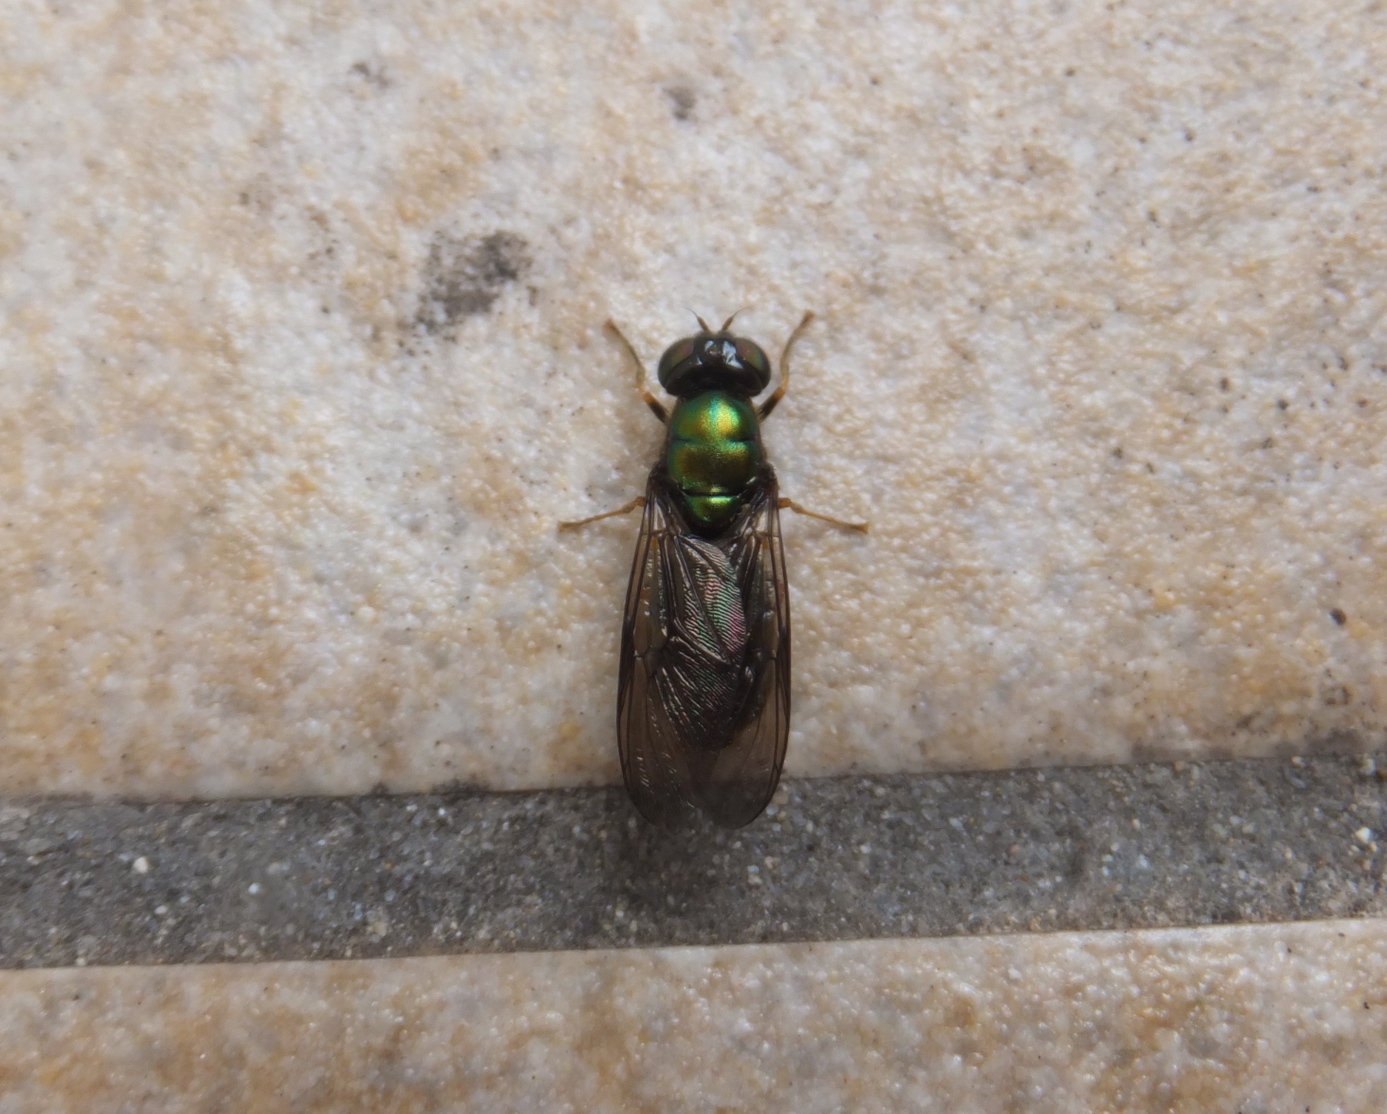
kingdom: Animalia
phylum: Arthropoda
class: Insecta
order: Diptera
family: Stratiomyidae
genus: Chloromyia
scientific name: Chloromyia speciosa
